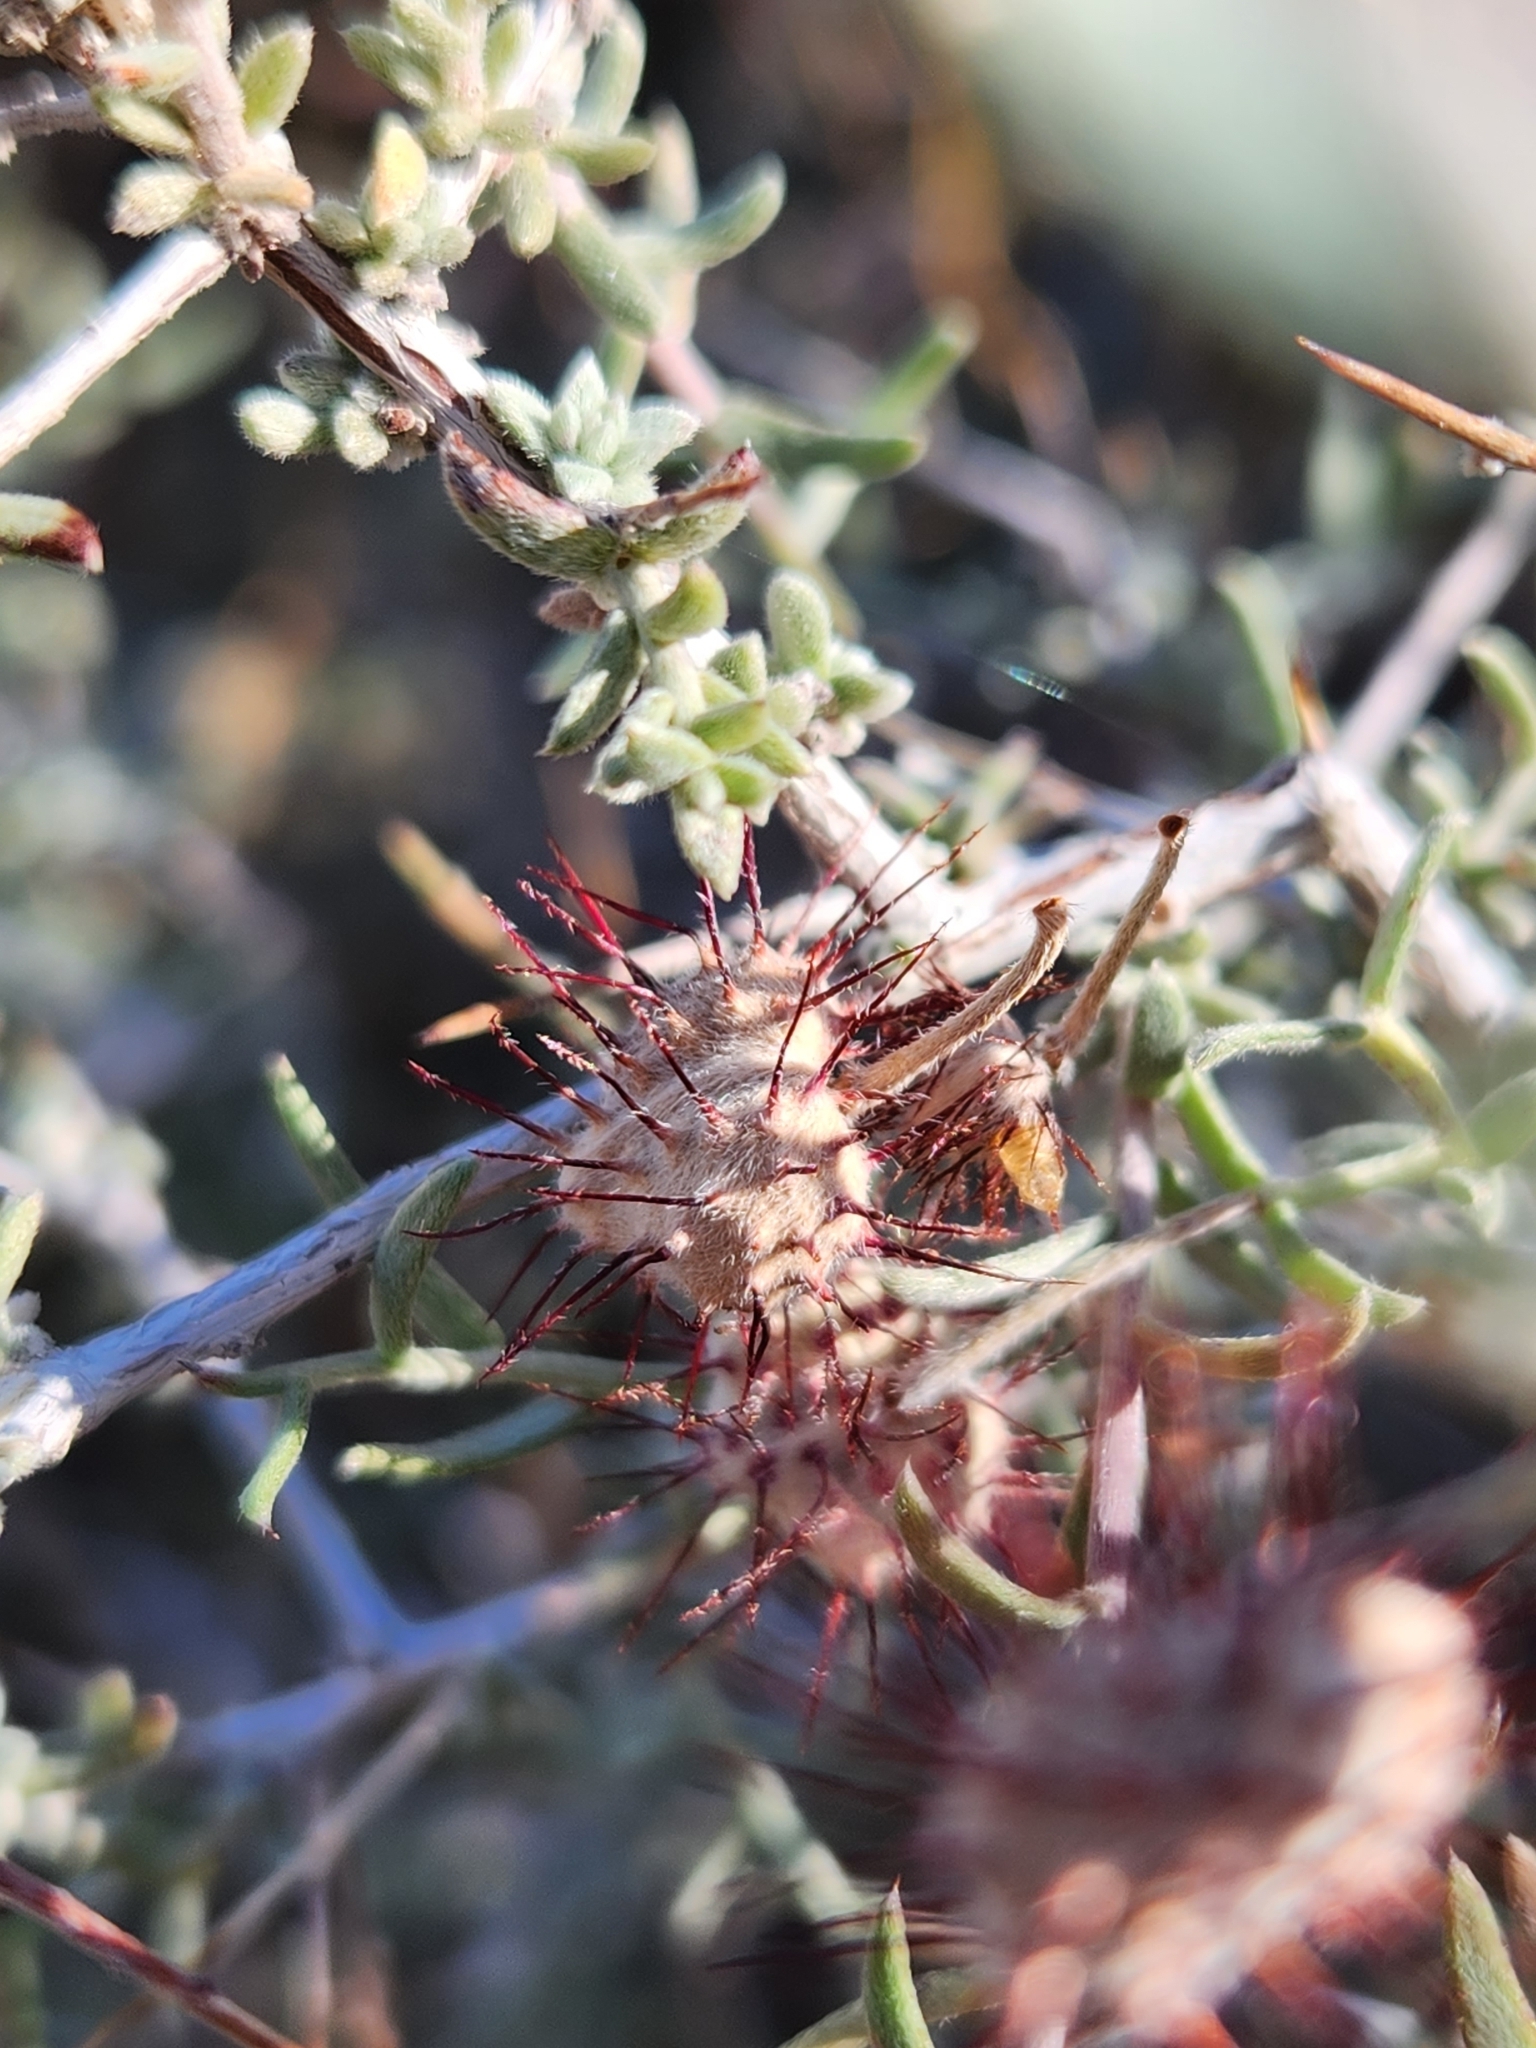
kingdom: Plantae
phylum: Tracheophyta
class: Magnoliopsida
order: Zygophyllales
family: Krameriaceae
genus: Krameria
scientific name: Krameria erecta
